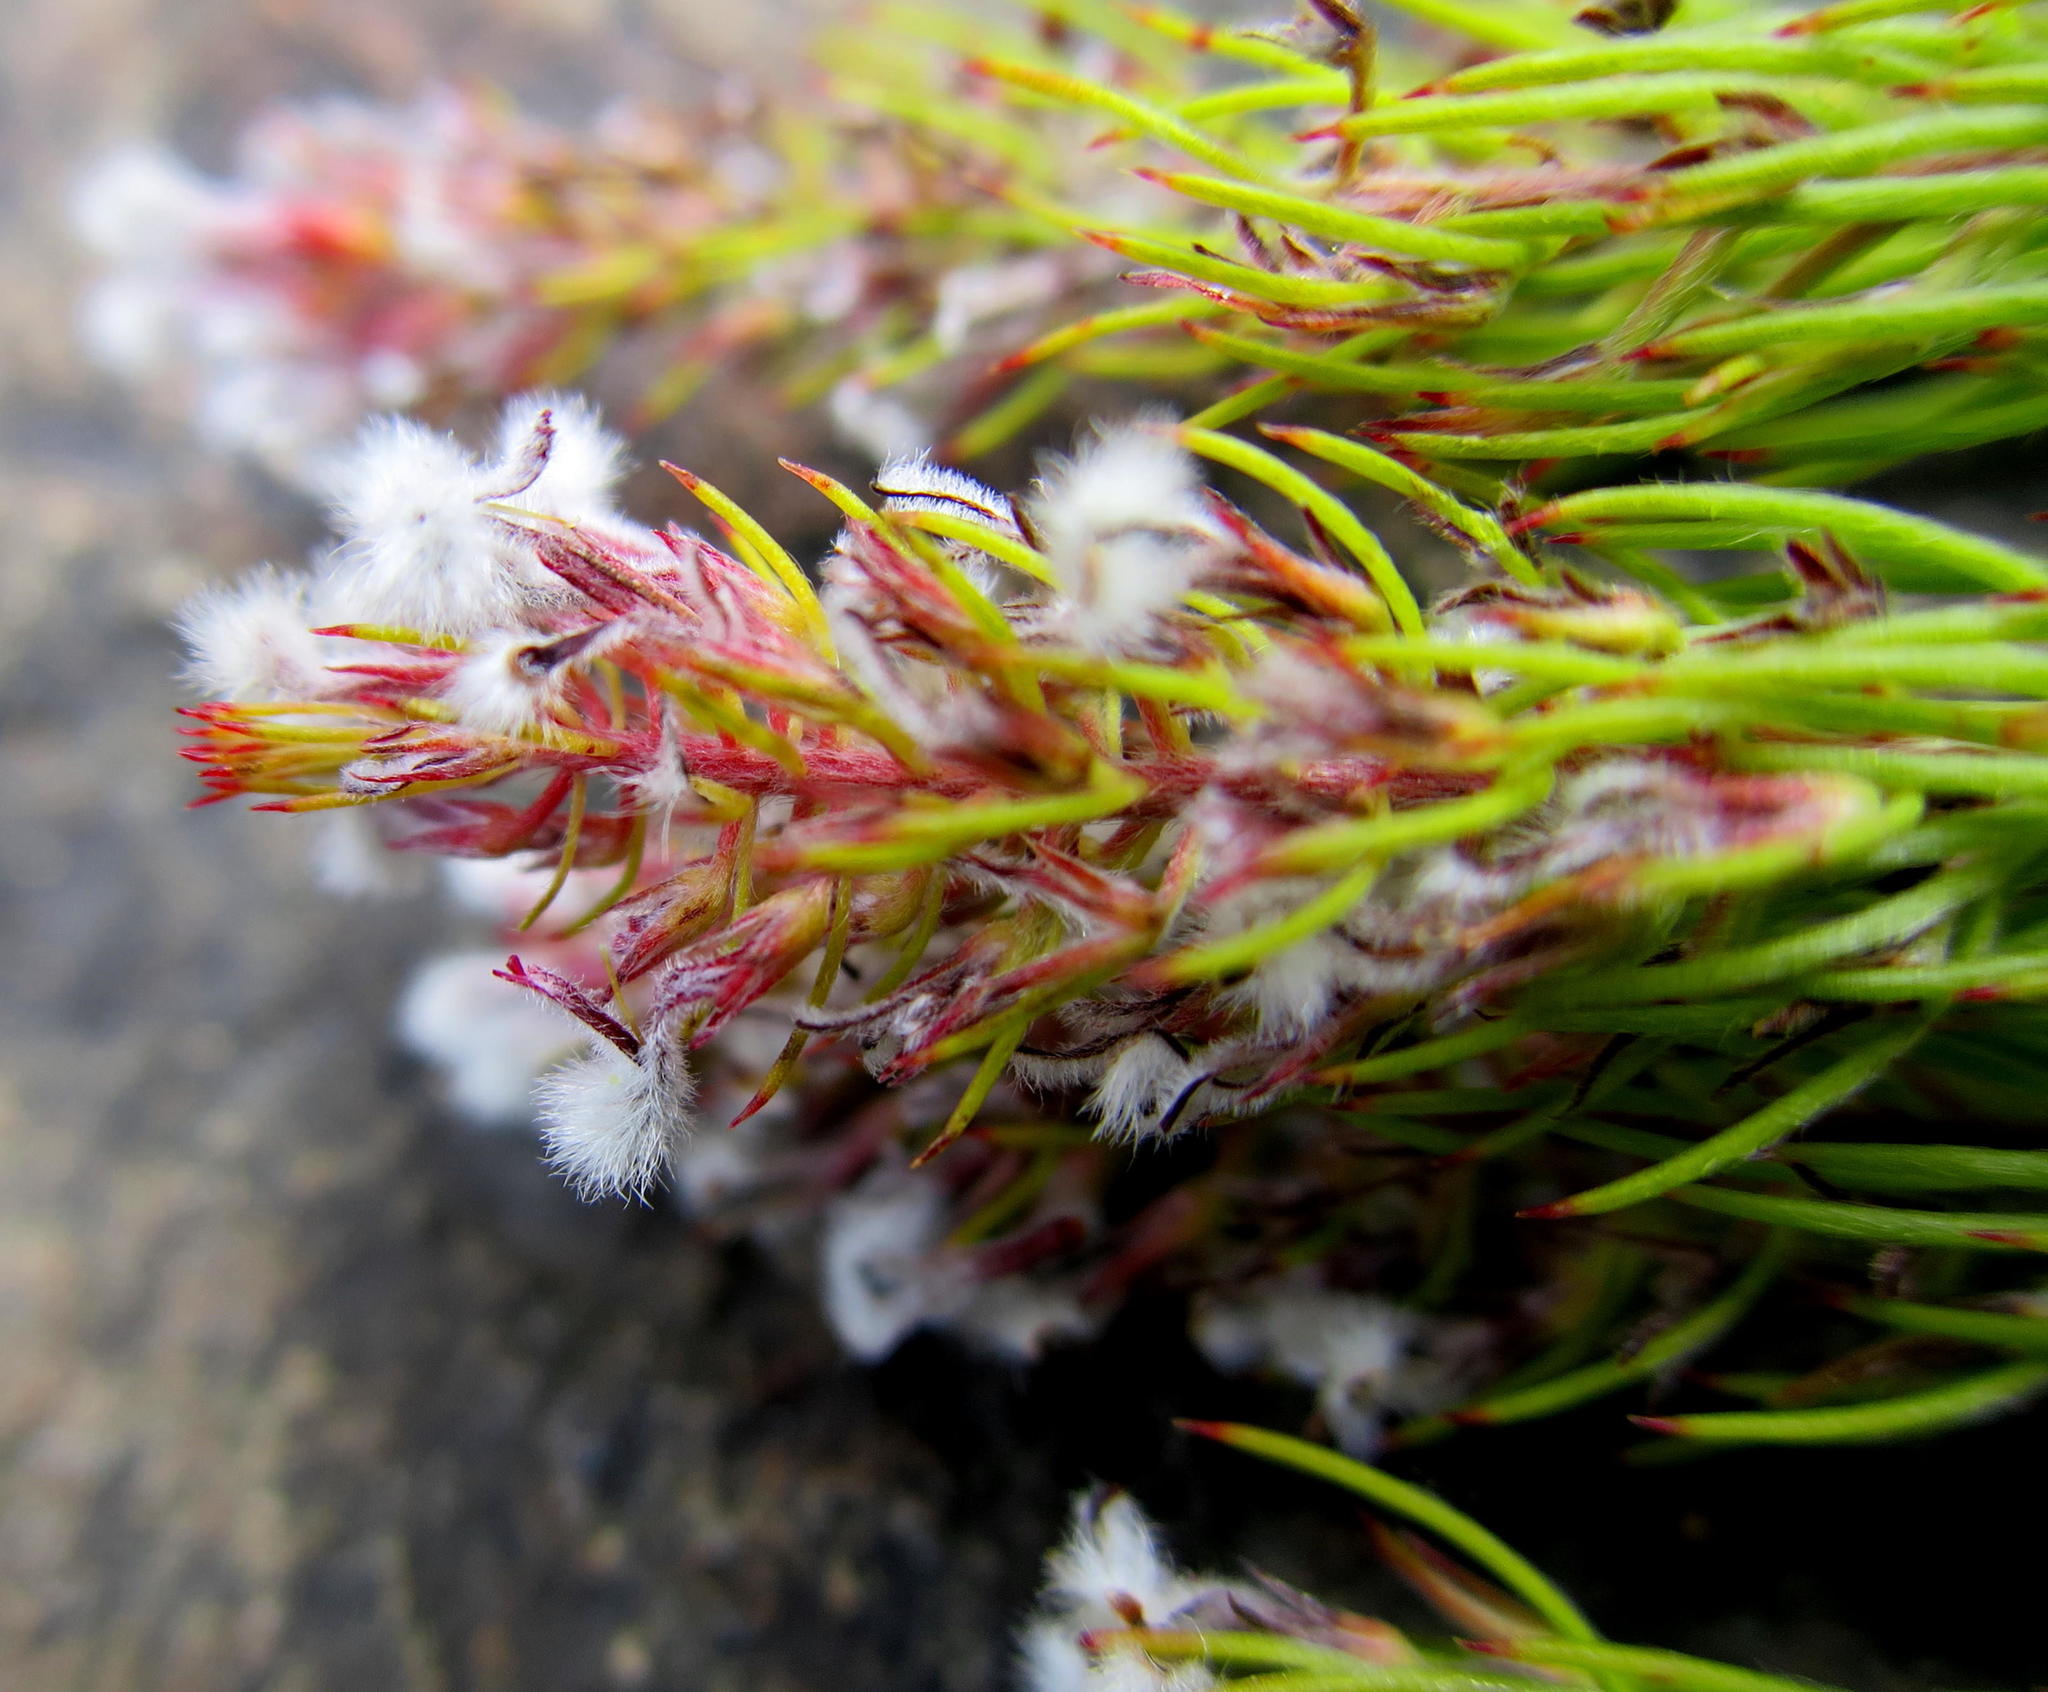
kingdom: Plantae
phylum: Tracheophyta
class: Magnoliopsida
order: Proteales
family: Proteaceae
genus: Spatalla
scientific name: Spatalla parilis
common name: Spike spoon
